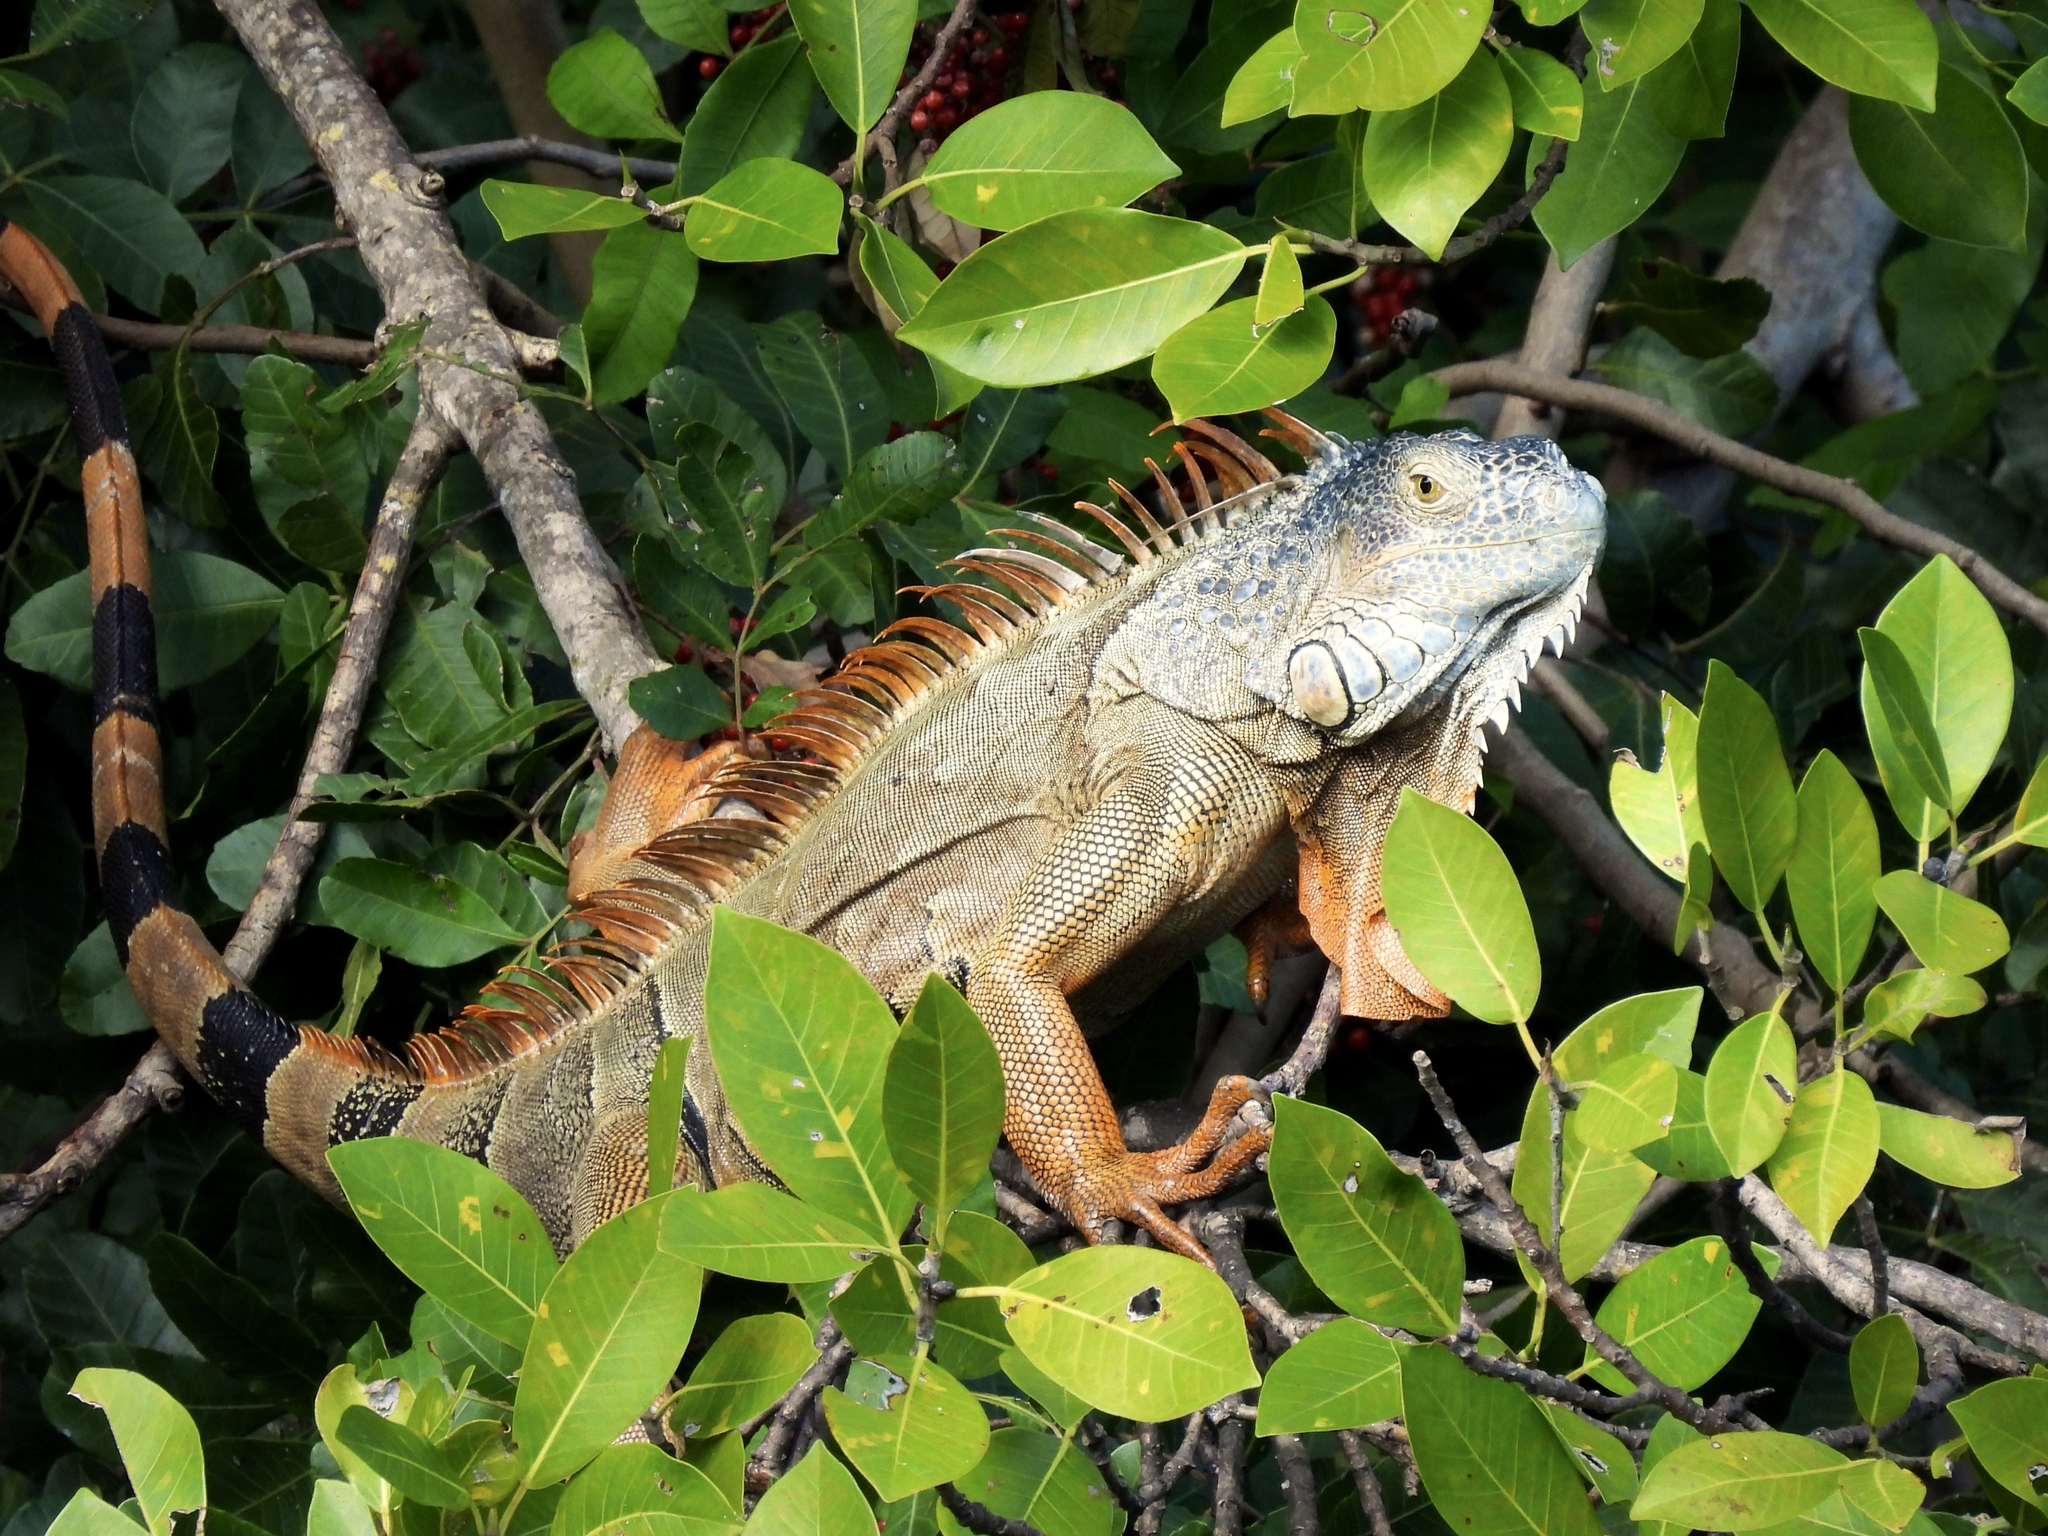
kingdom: Animalia
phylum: Chordata
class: Squamata
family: Iguanidae
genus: Iguana
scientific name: Iguana iguana
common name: Green iguana
